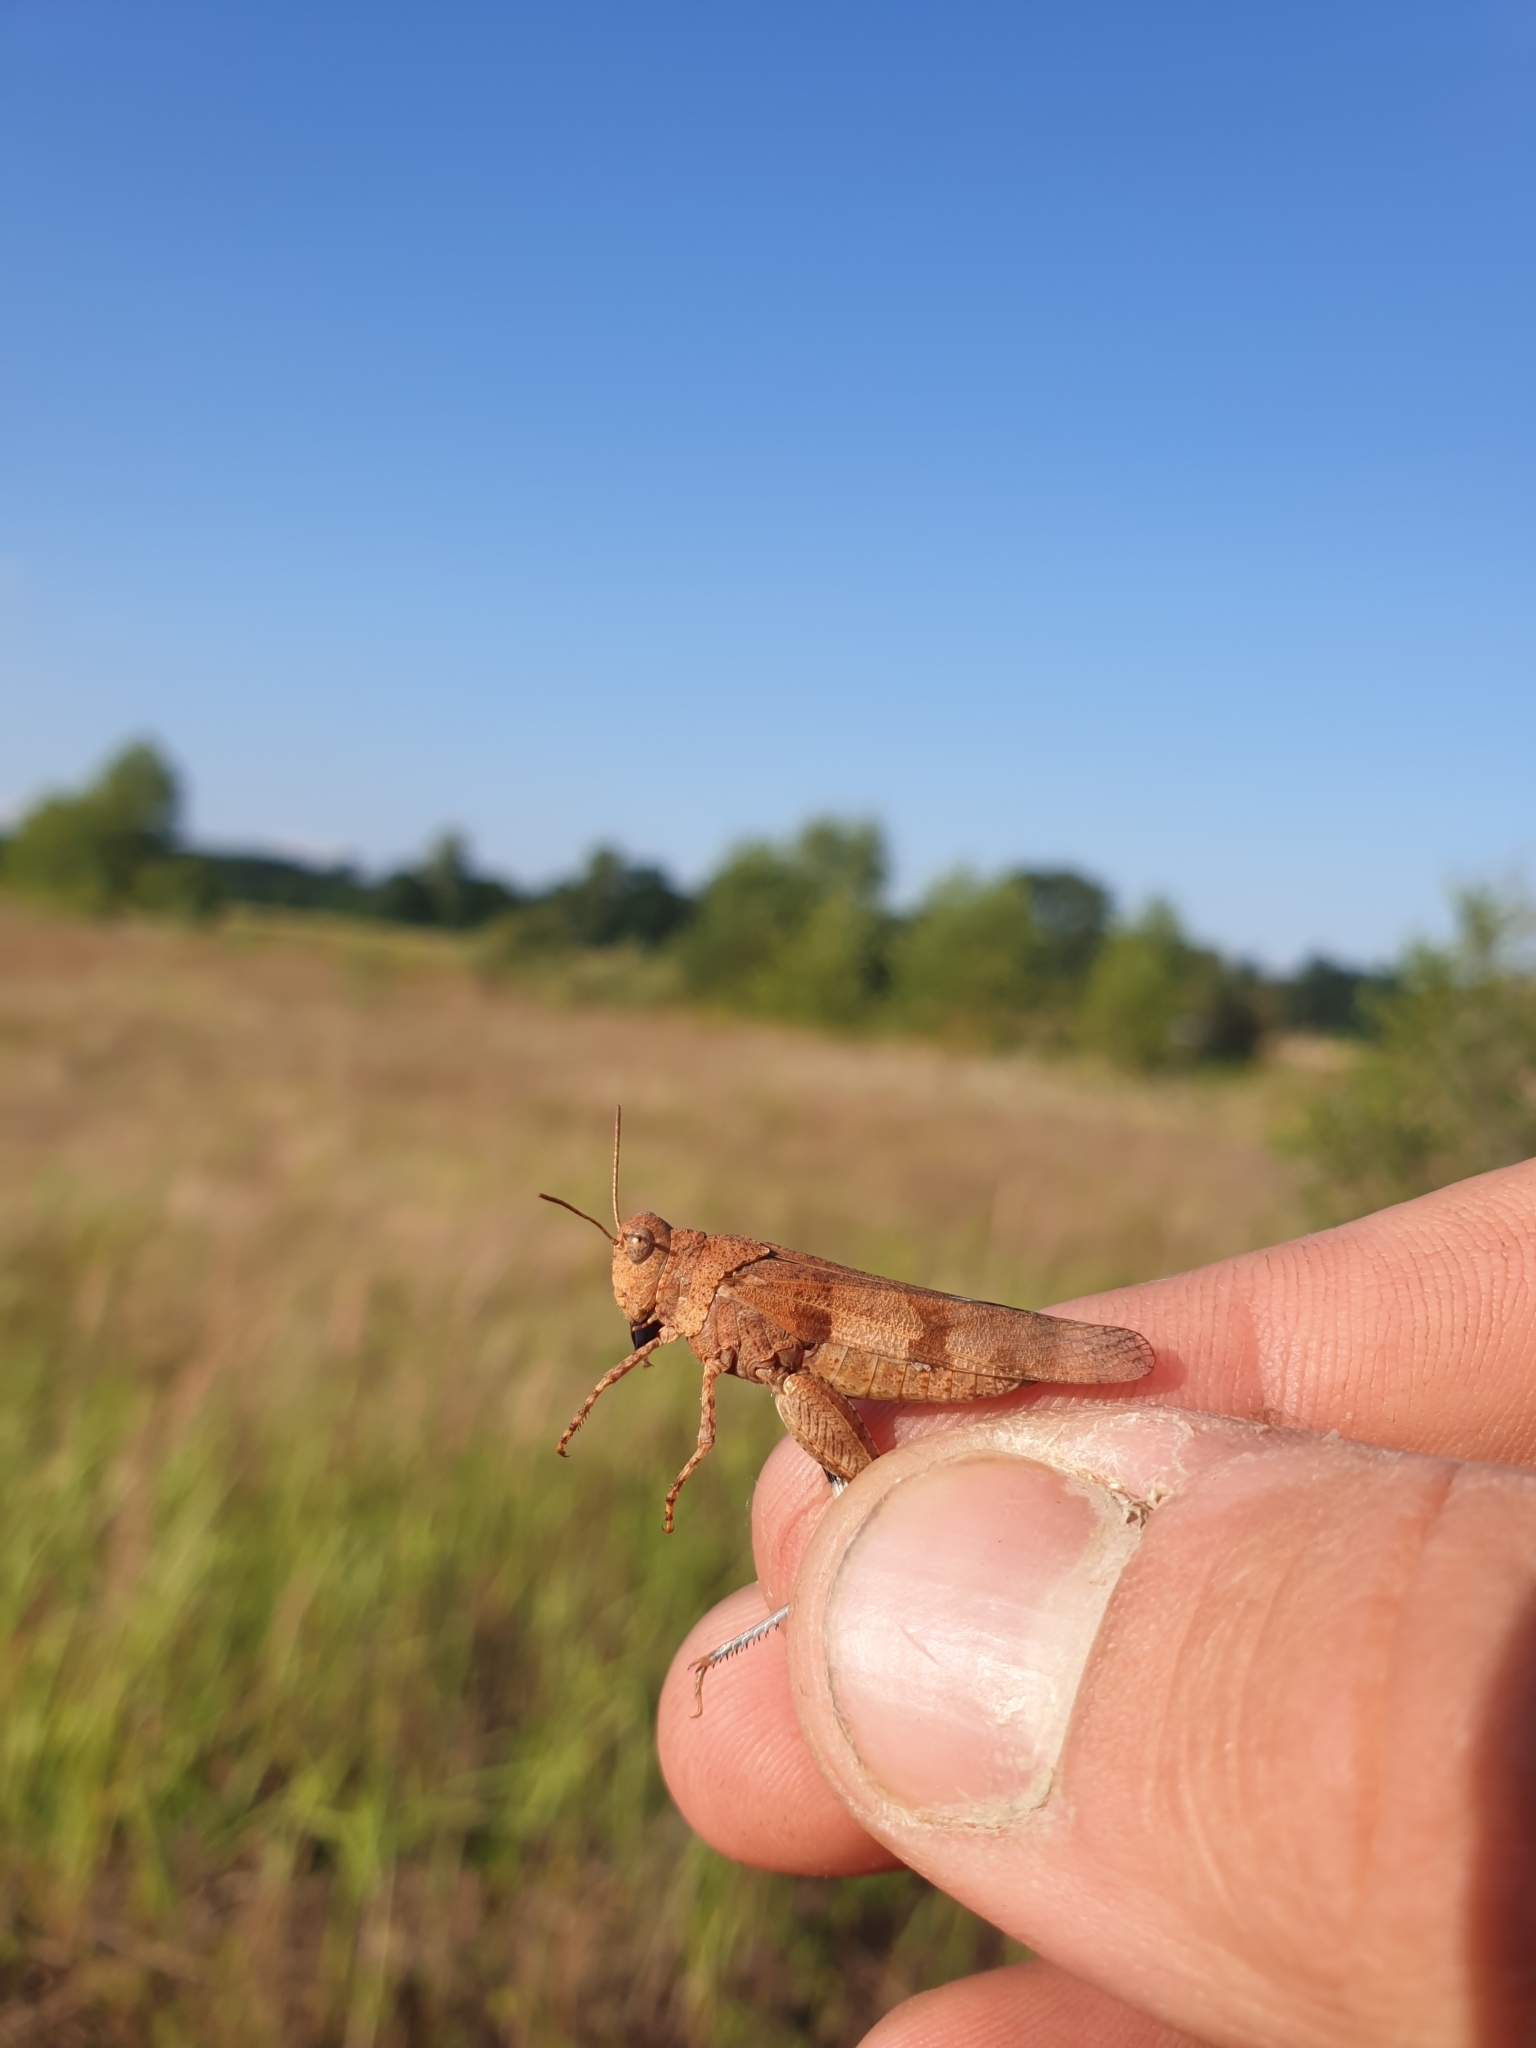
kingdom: Animalia
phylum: Arthropoda
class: Insecta
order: Orthoptera
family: Acrididae
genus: Oedipoda
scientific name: Oedipoda caerulescens
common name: Blue-winged grasshopper
